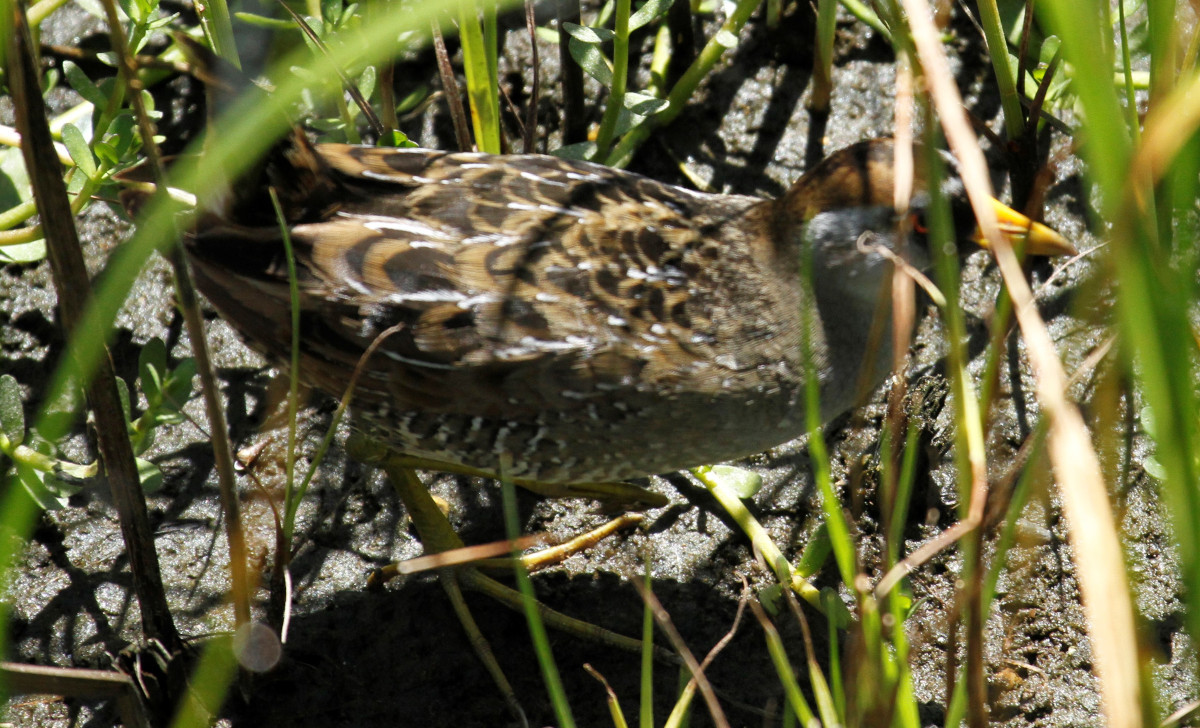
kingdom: Animalia
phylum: Chordata
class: Aves
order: Gruiformes
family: Rallidae
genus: Porzana
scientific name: Porzana carolina
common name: Sora
